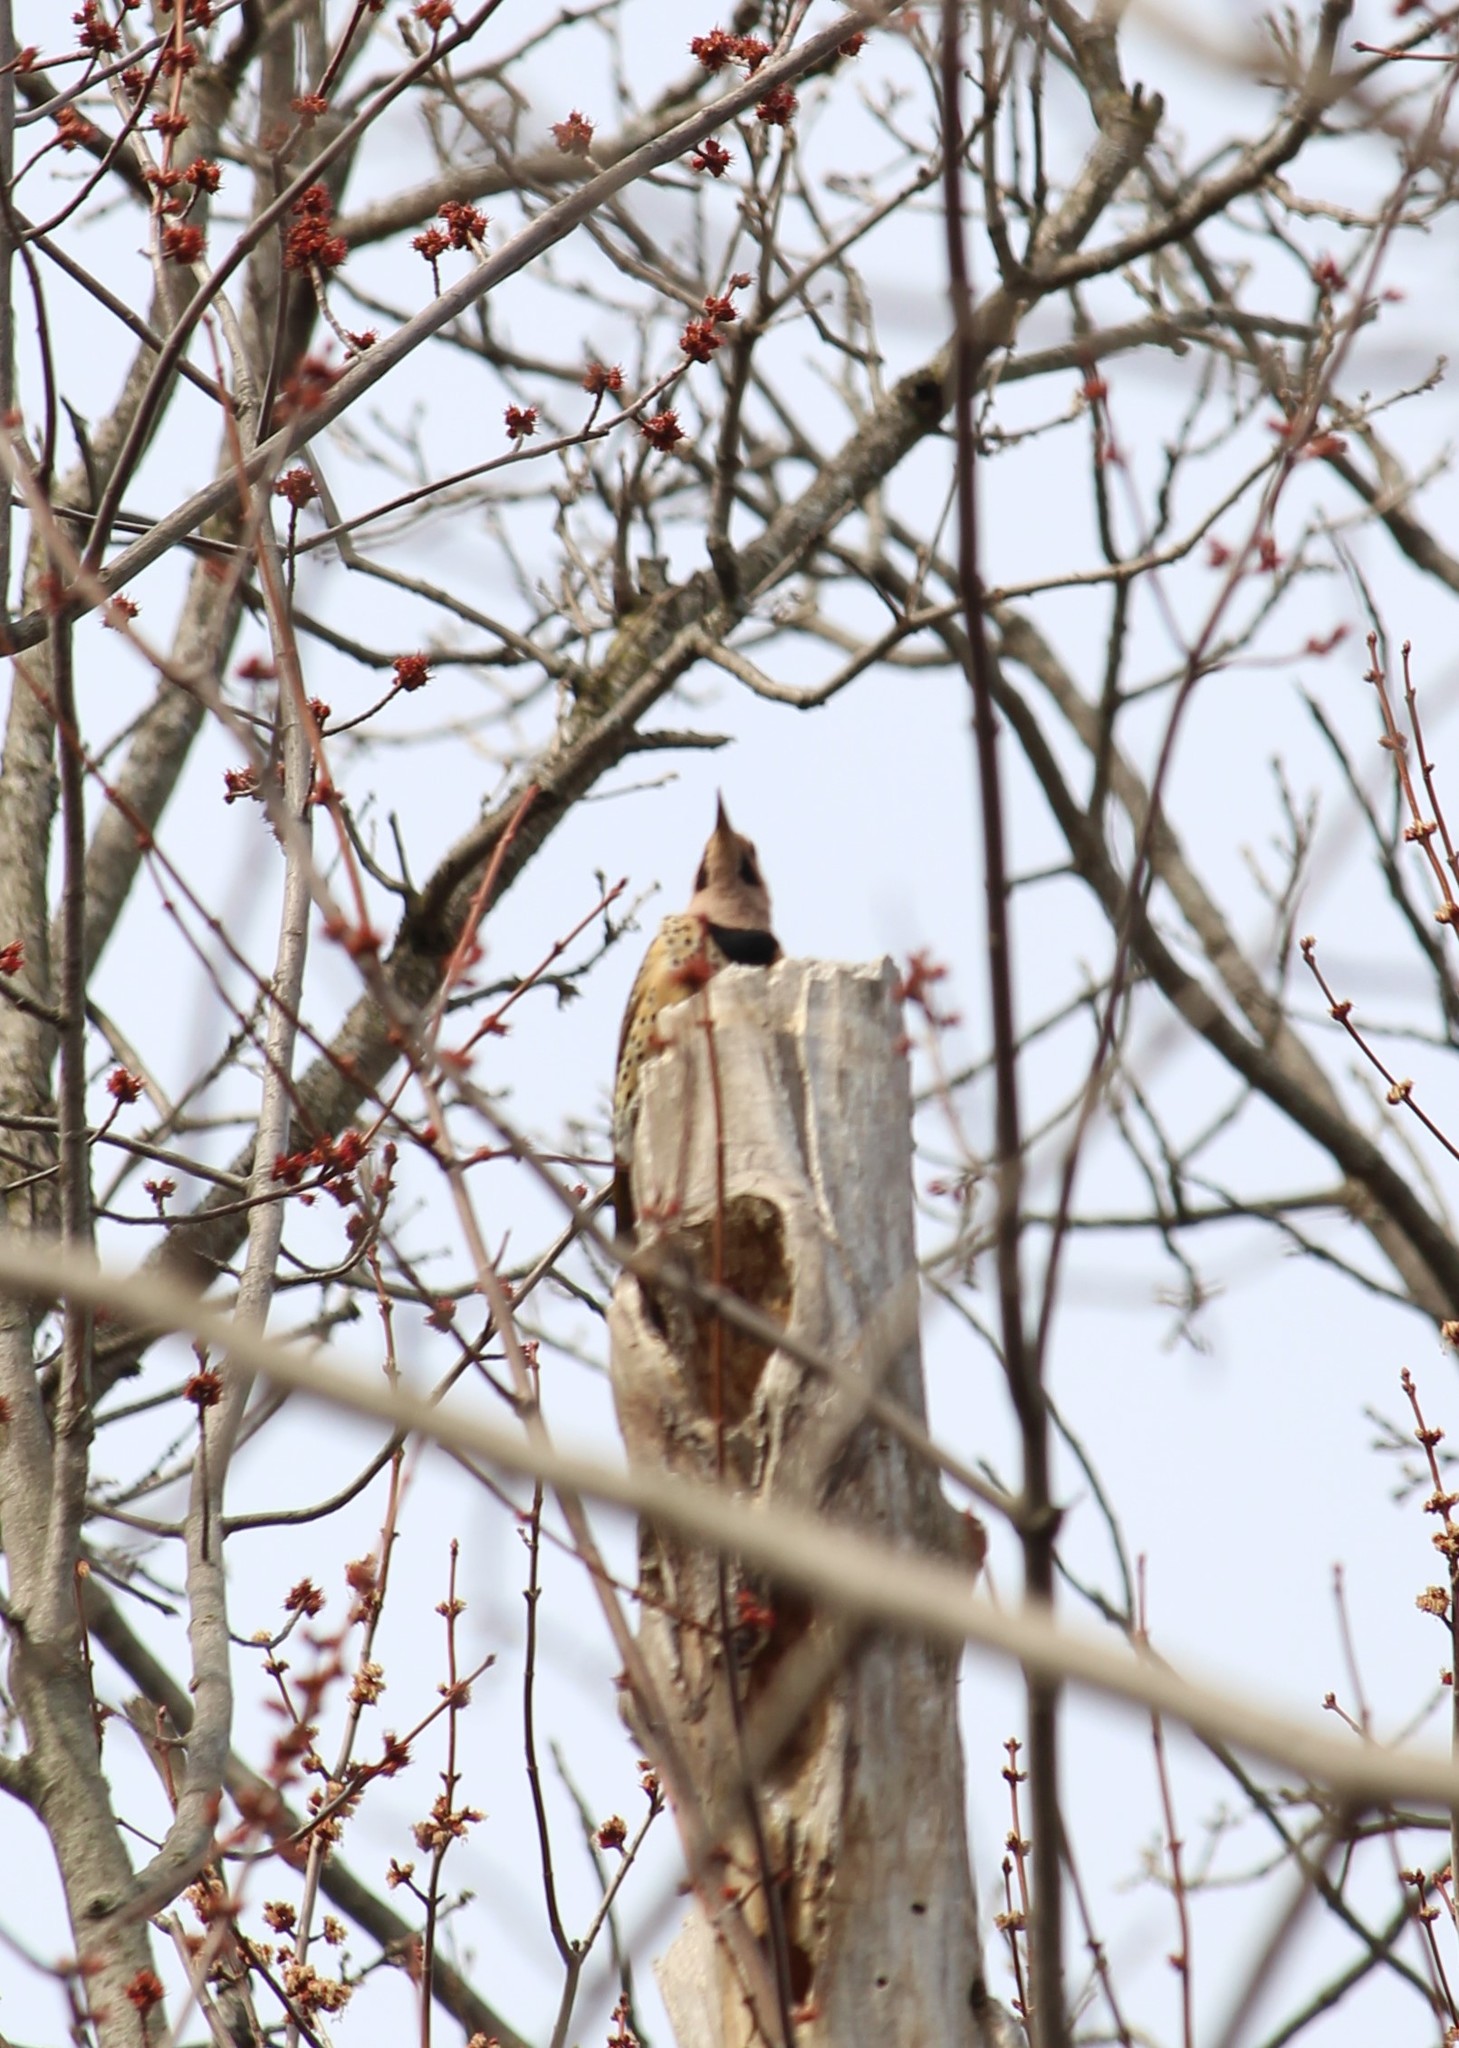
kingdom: Animalia
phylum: Chordata
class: Aves
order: Piciformes
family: Picidae
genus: Colaptes
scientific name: Colaptes auratus
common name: Northern flicker
